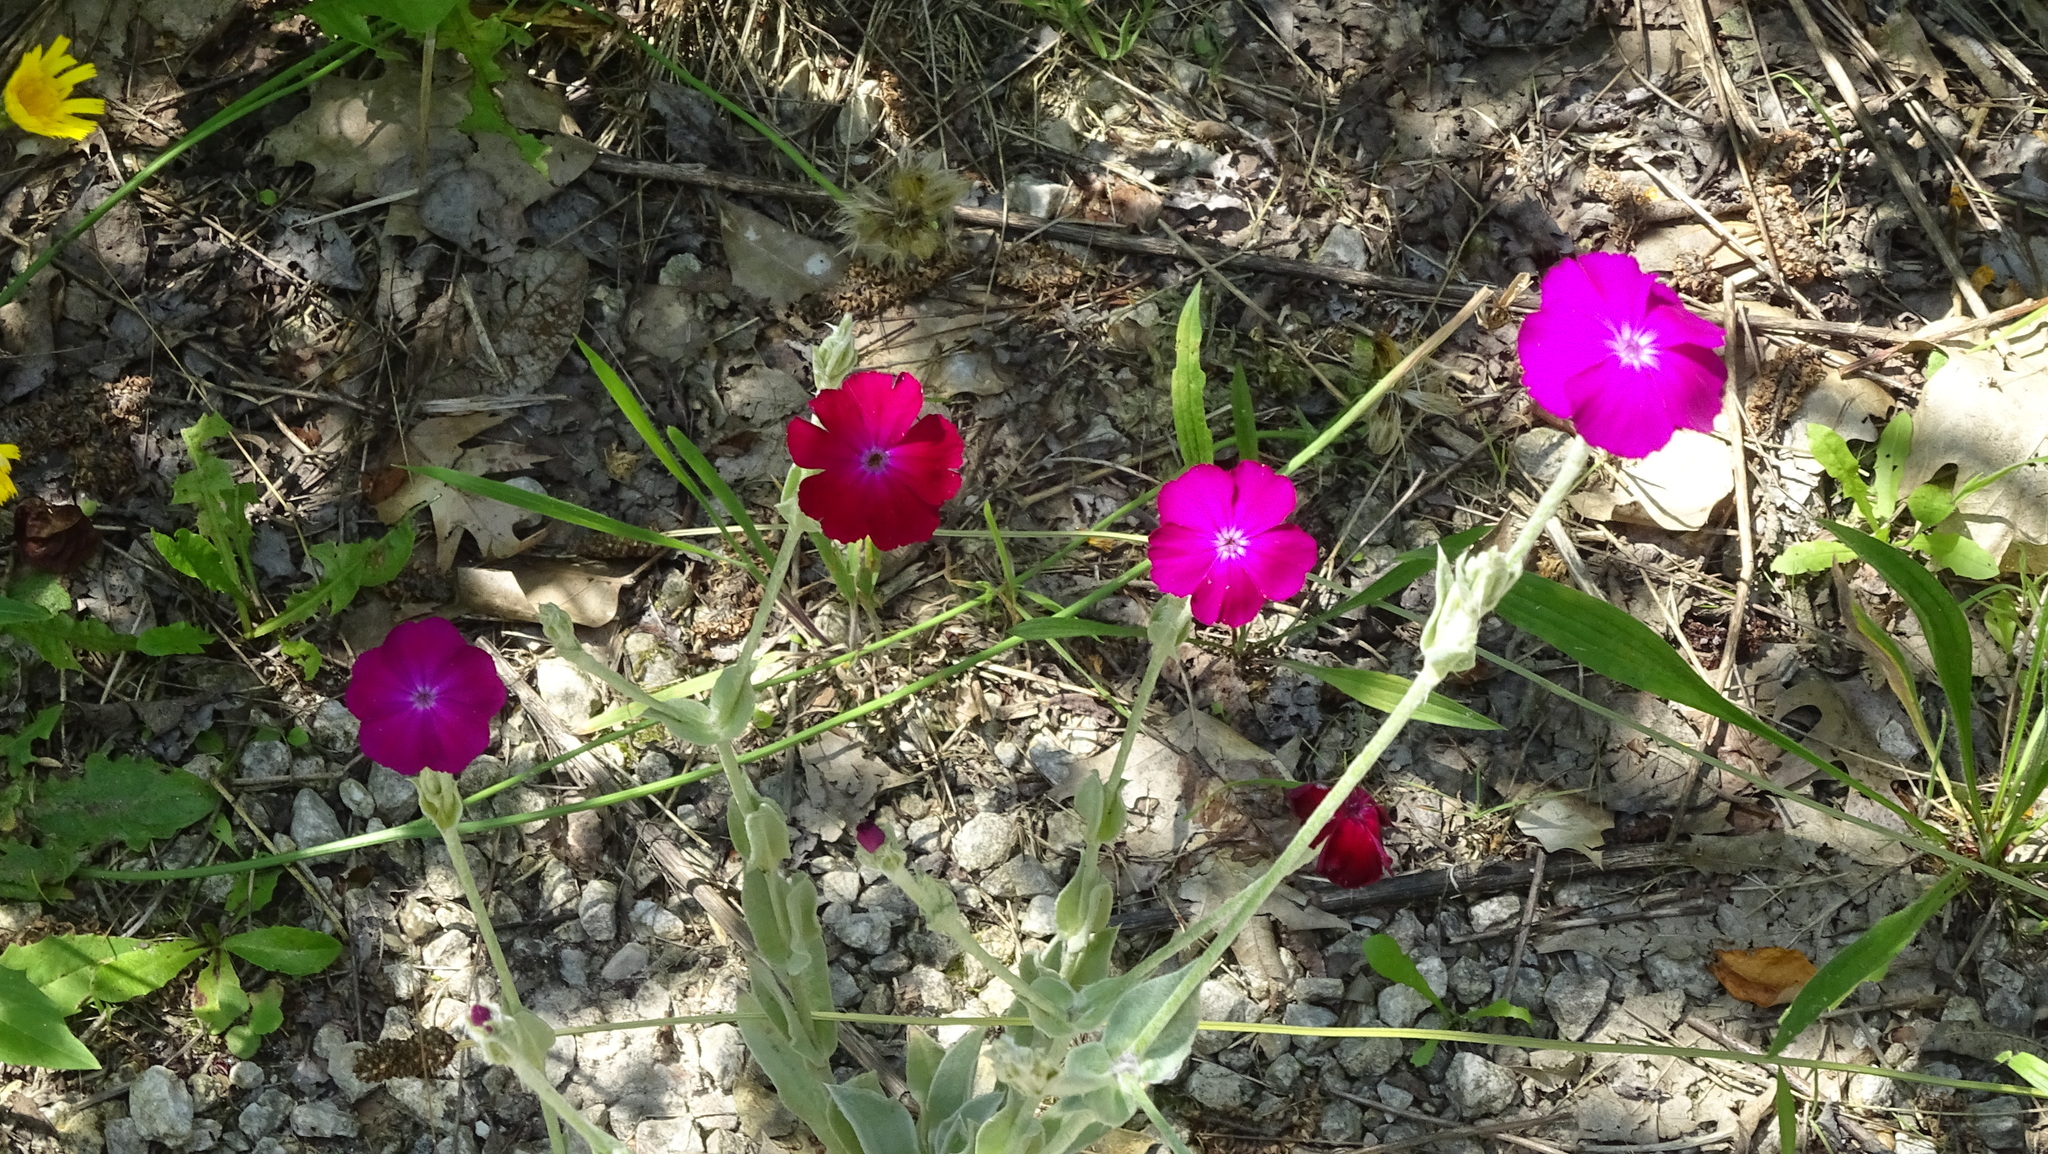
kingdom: Plantae
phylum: Tracheophyta
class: Magnoliopsida
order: Caryophyllales
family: Caryophyllaceae
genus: Silene
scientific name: Silene coronaria
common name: Rose campion
